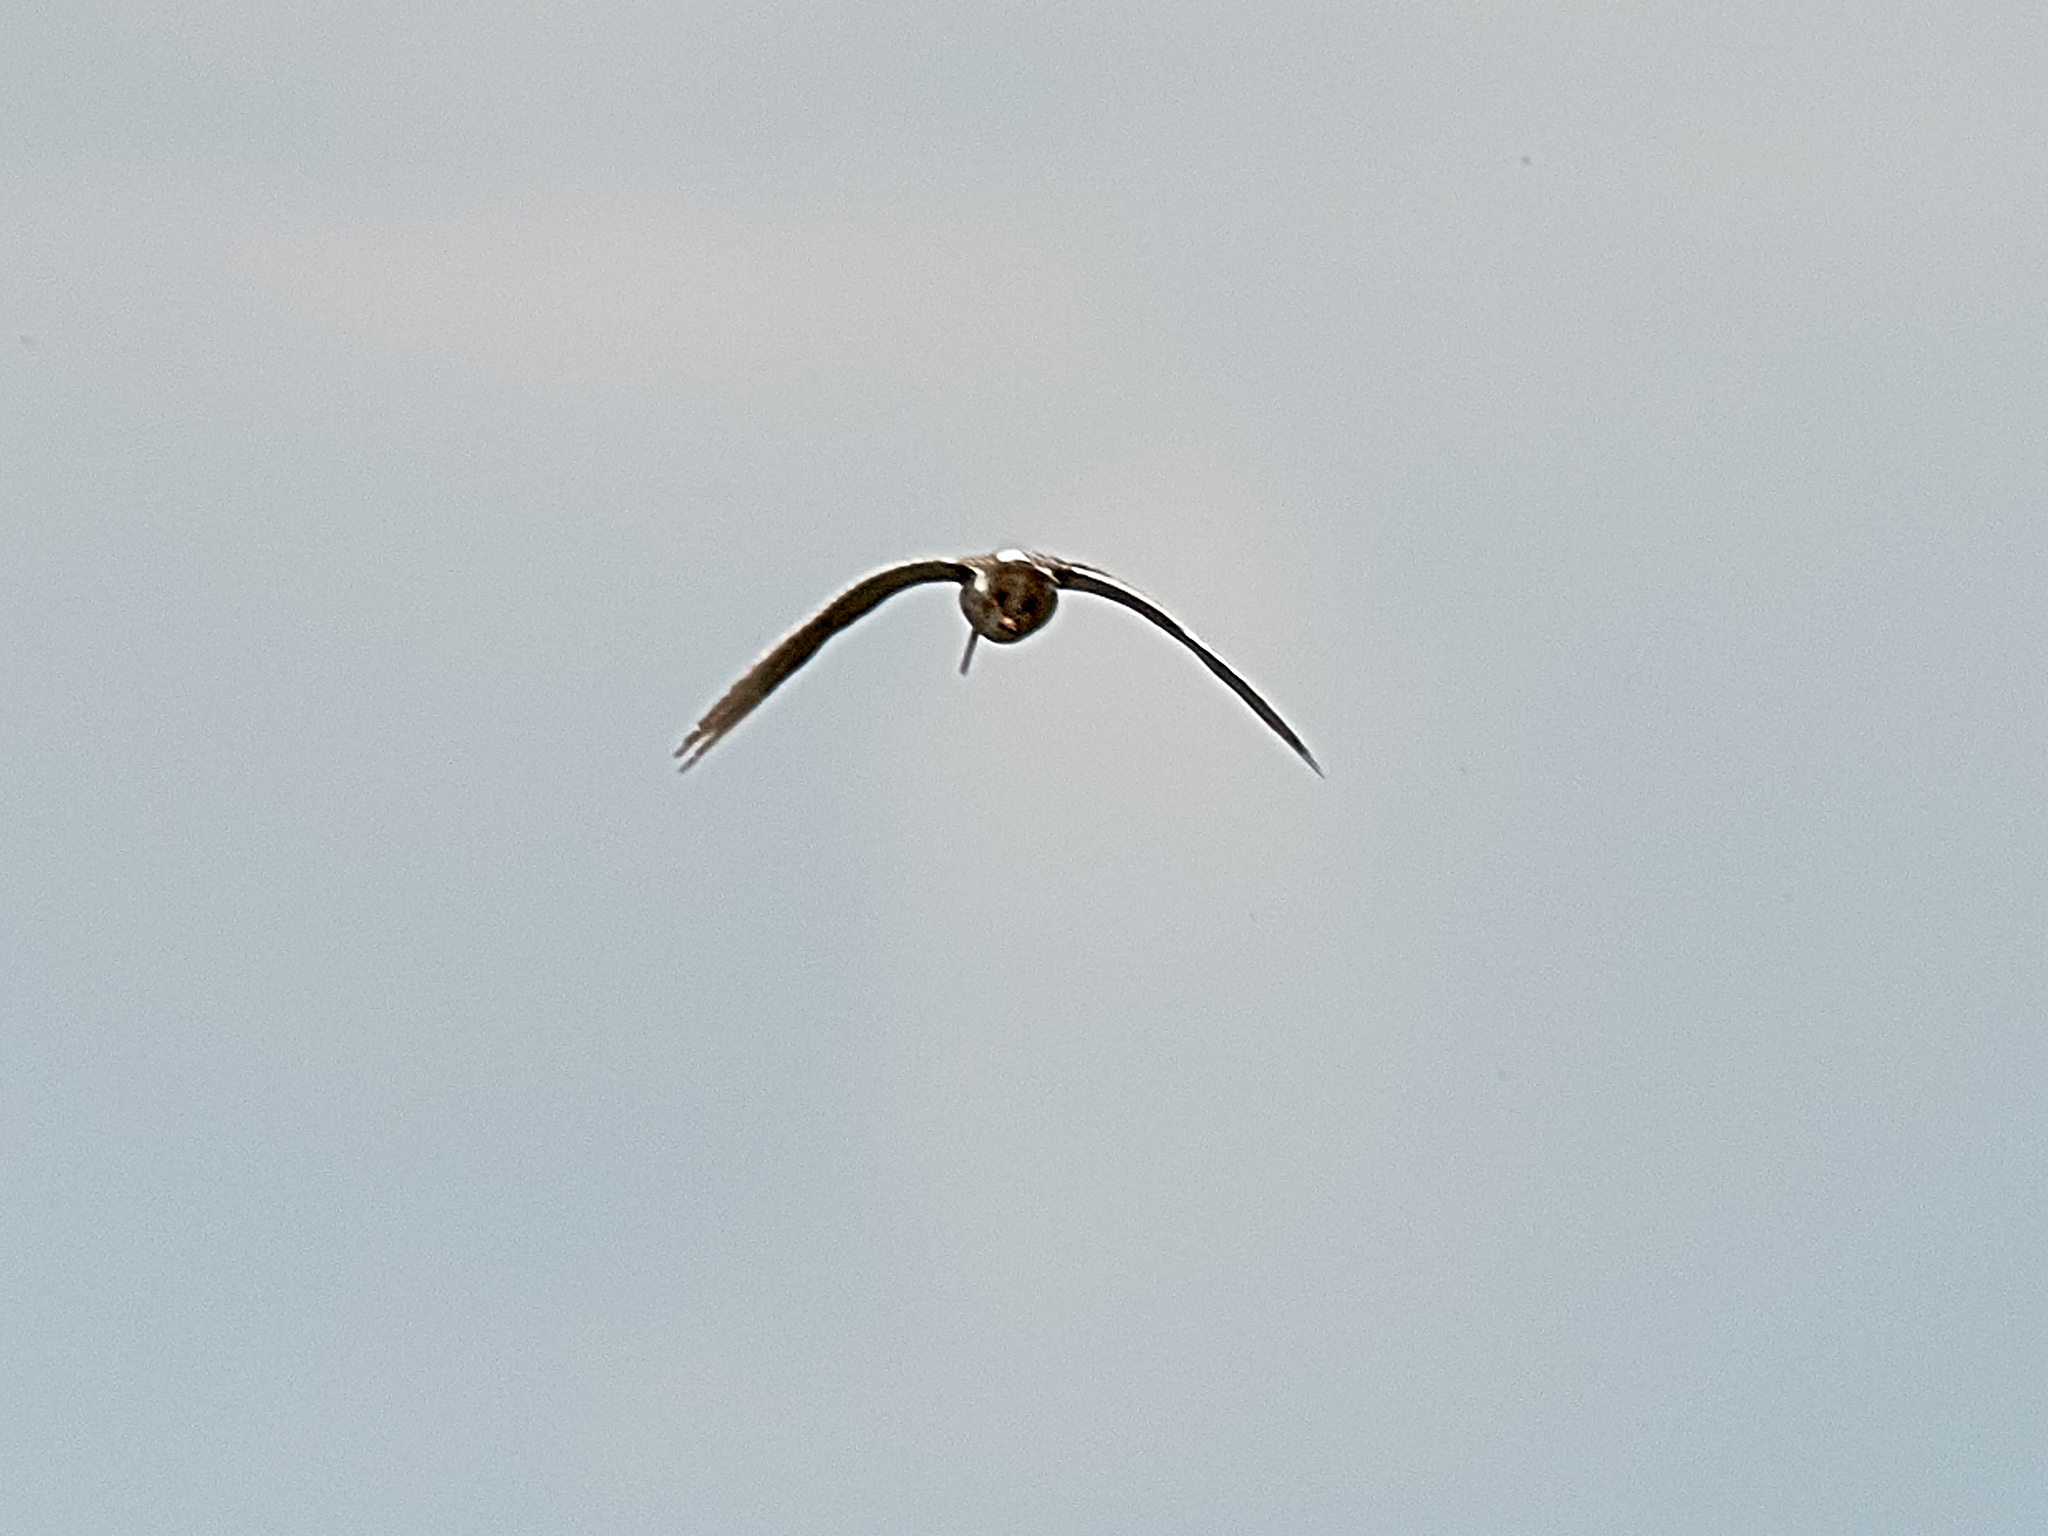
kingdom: Animalia
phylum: Chordata
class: Aves
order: Charadriiformes
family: Scolopacidae
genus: Tringa
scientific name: Tringa totanus
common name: Common redshank
